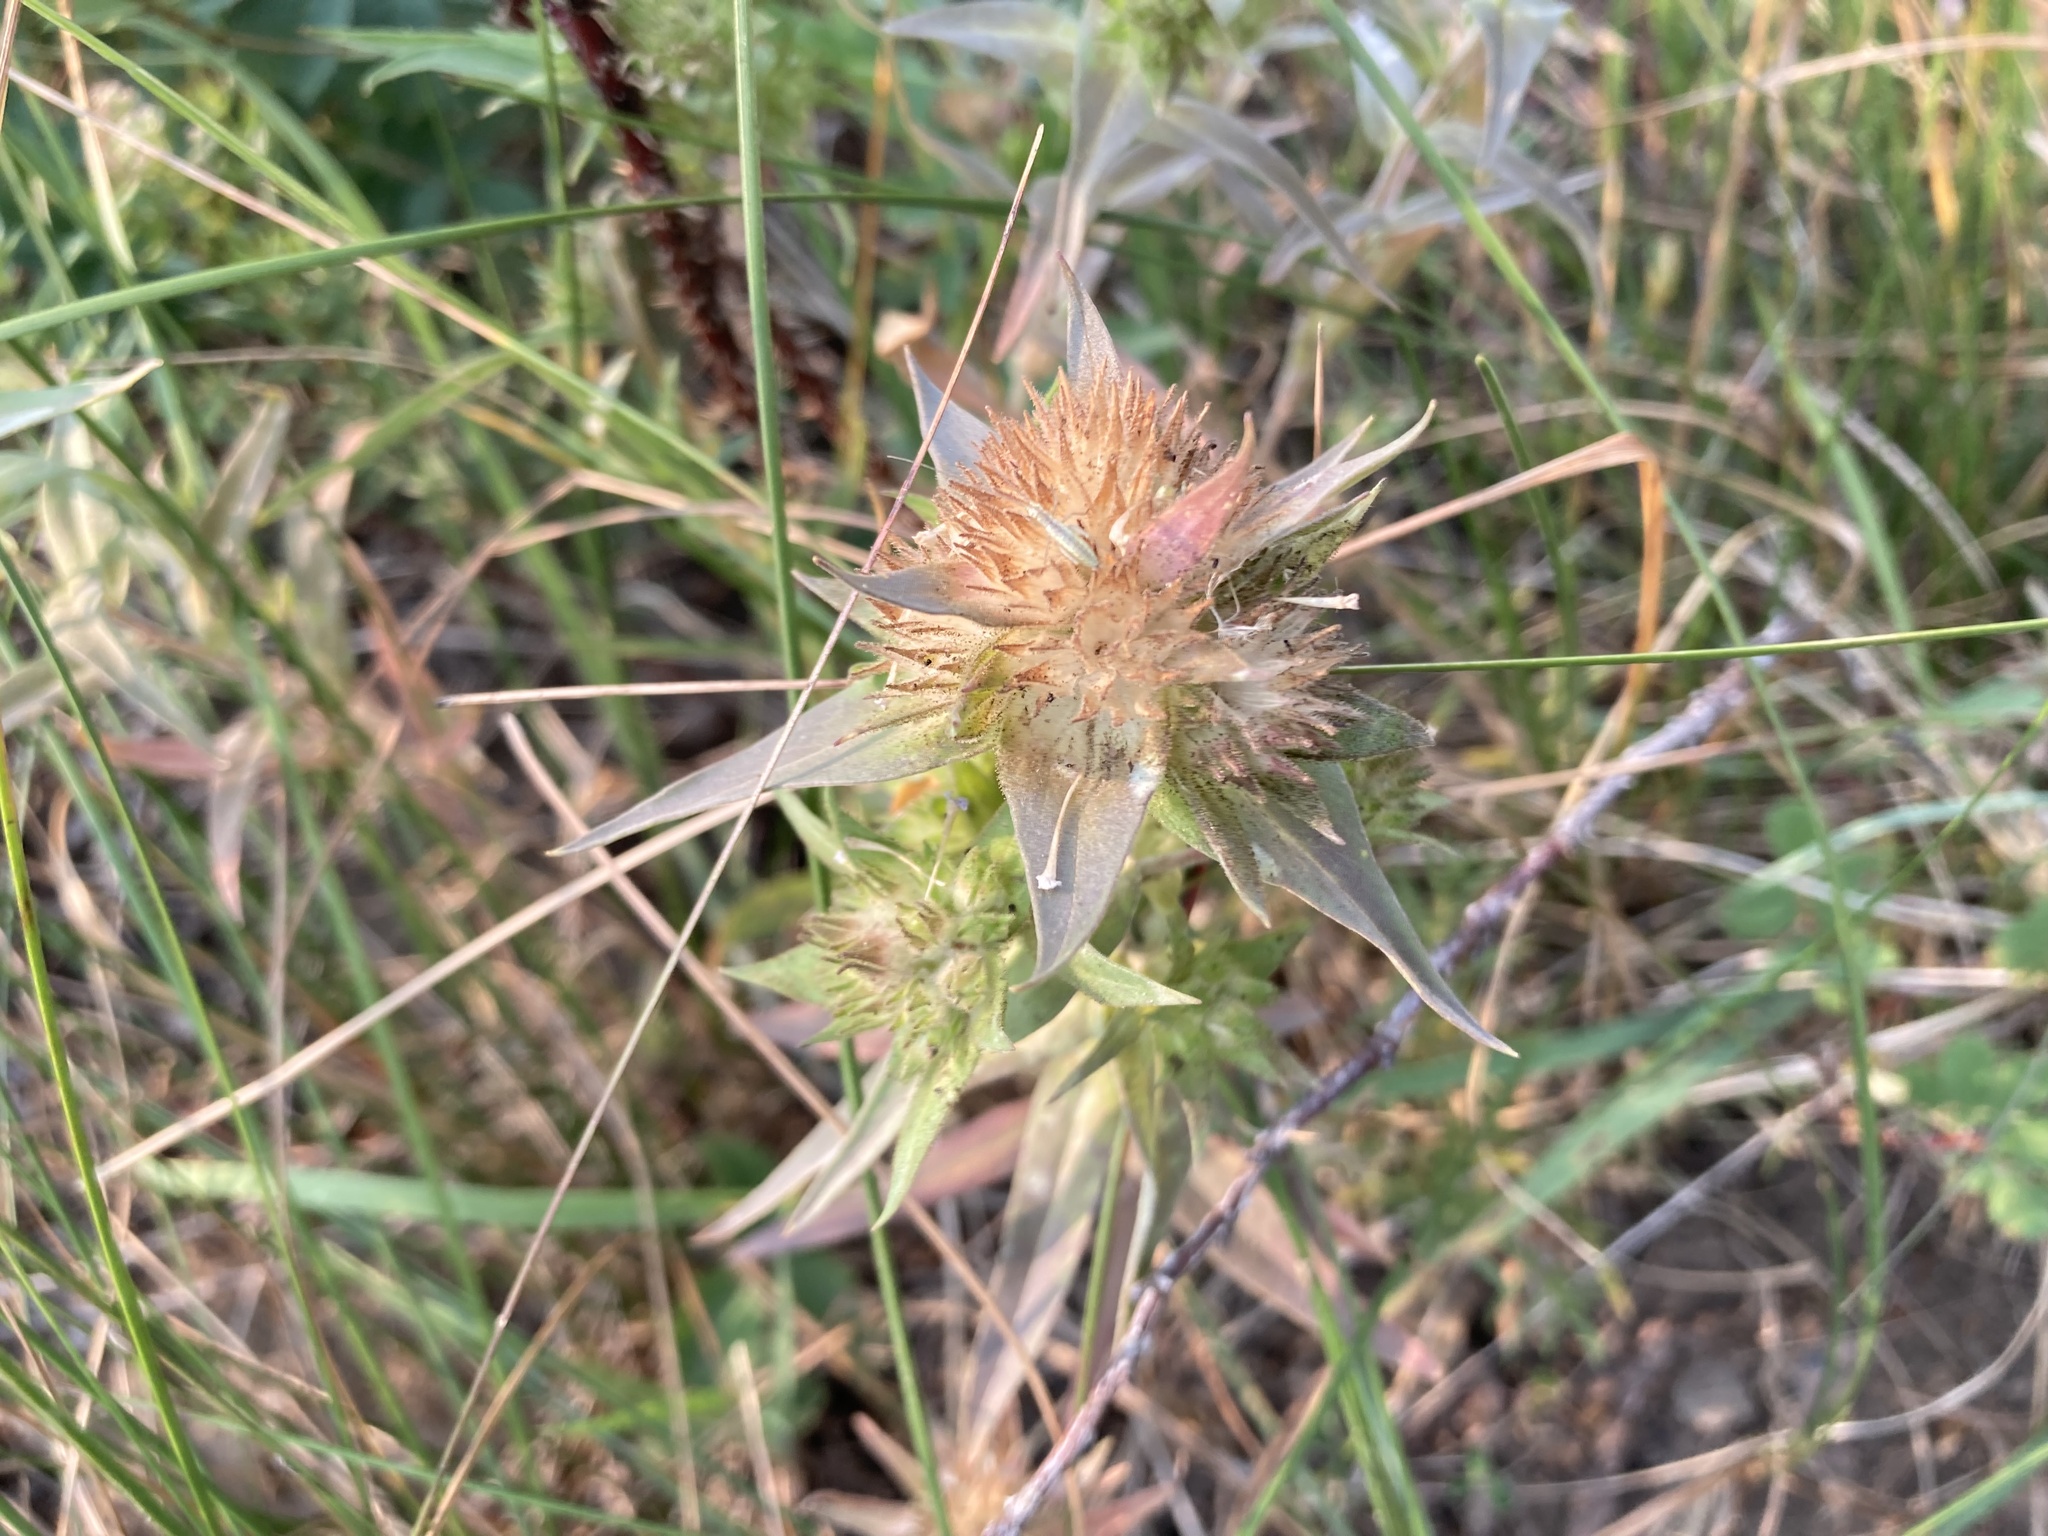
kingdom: Plantae
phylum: Tracheophyta
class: Magnoliopsida
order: Ericales
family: Polemoniaceae
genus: Collomia
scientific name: Collomia linearis
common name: Tiny trumpet
